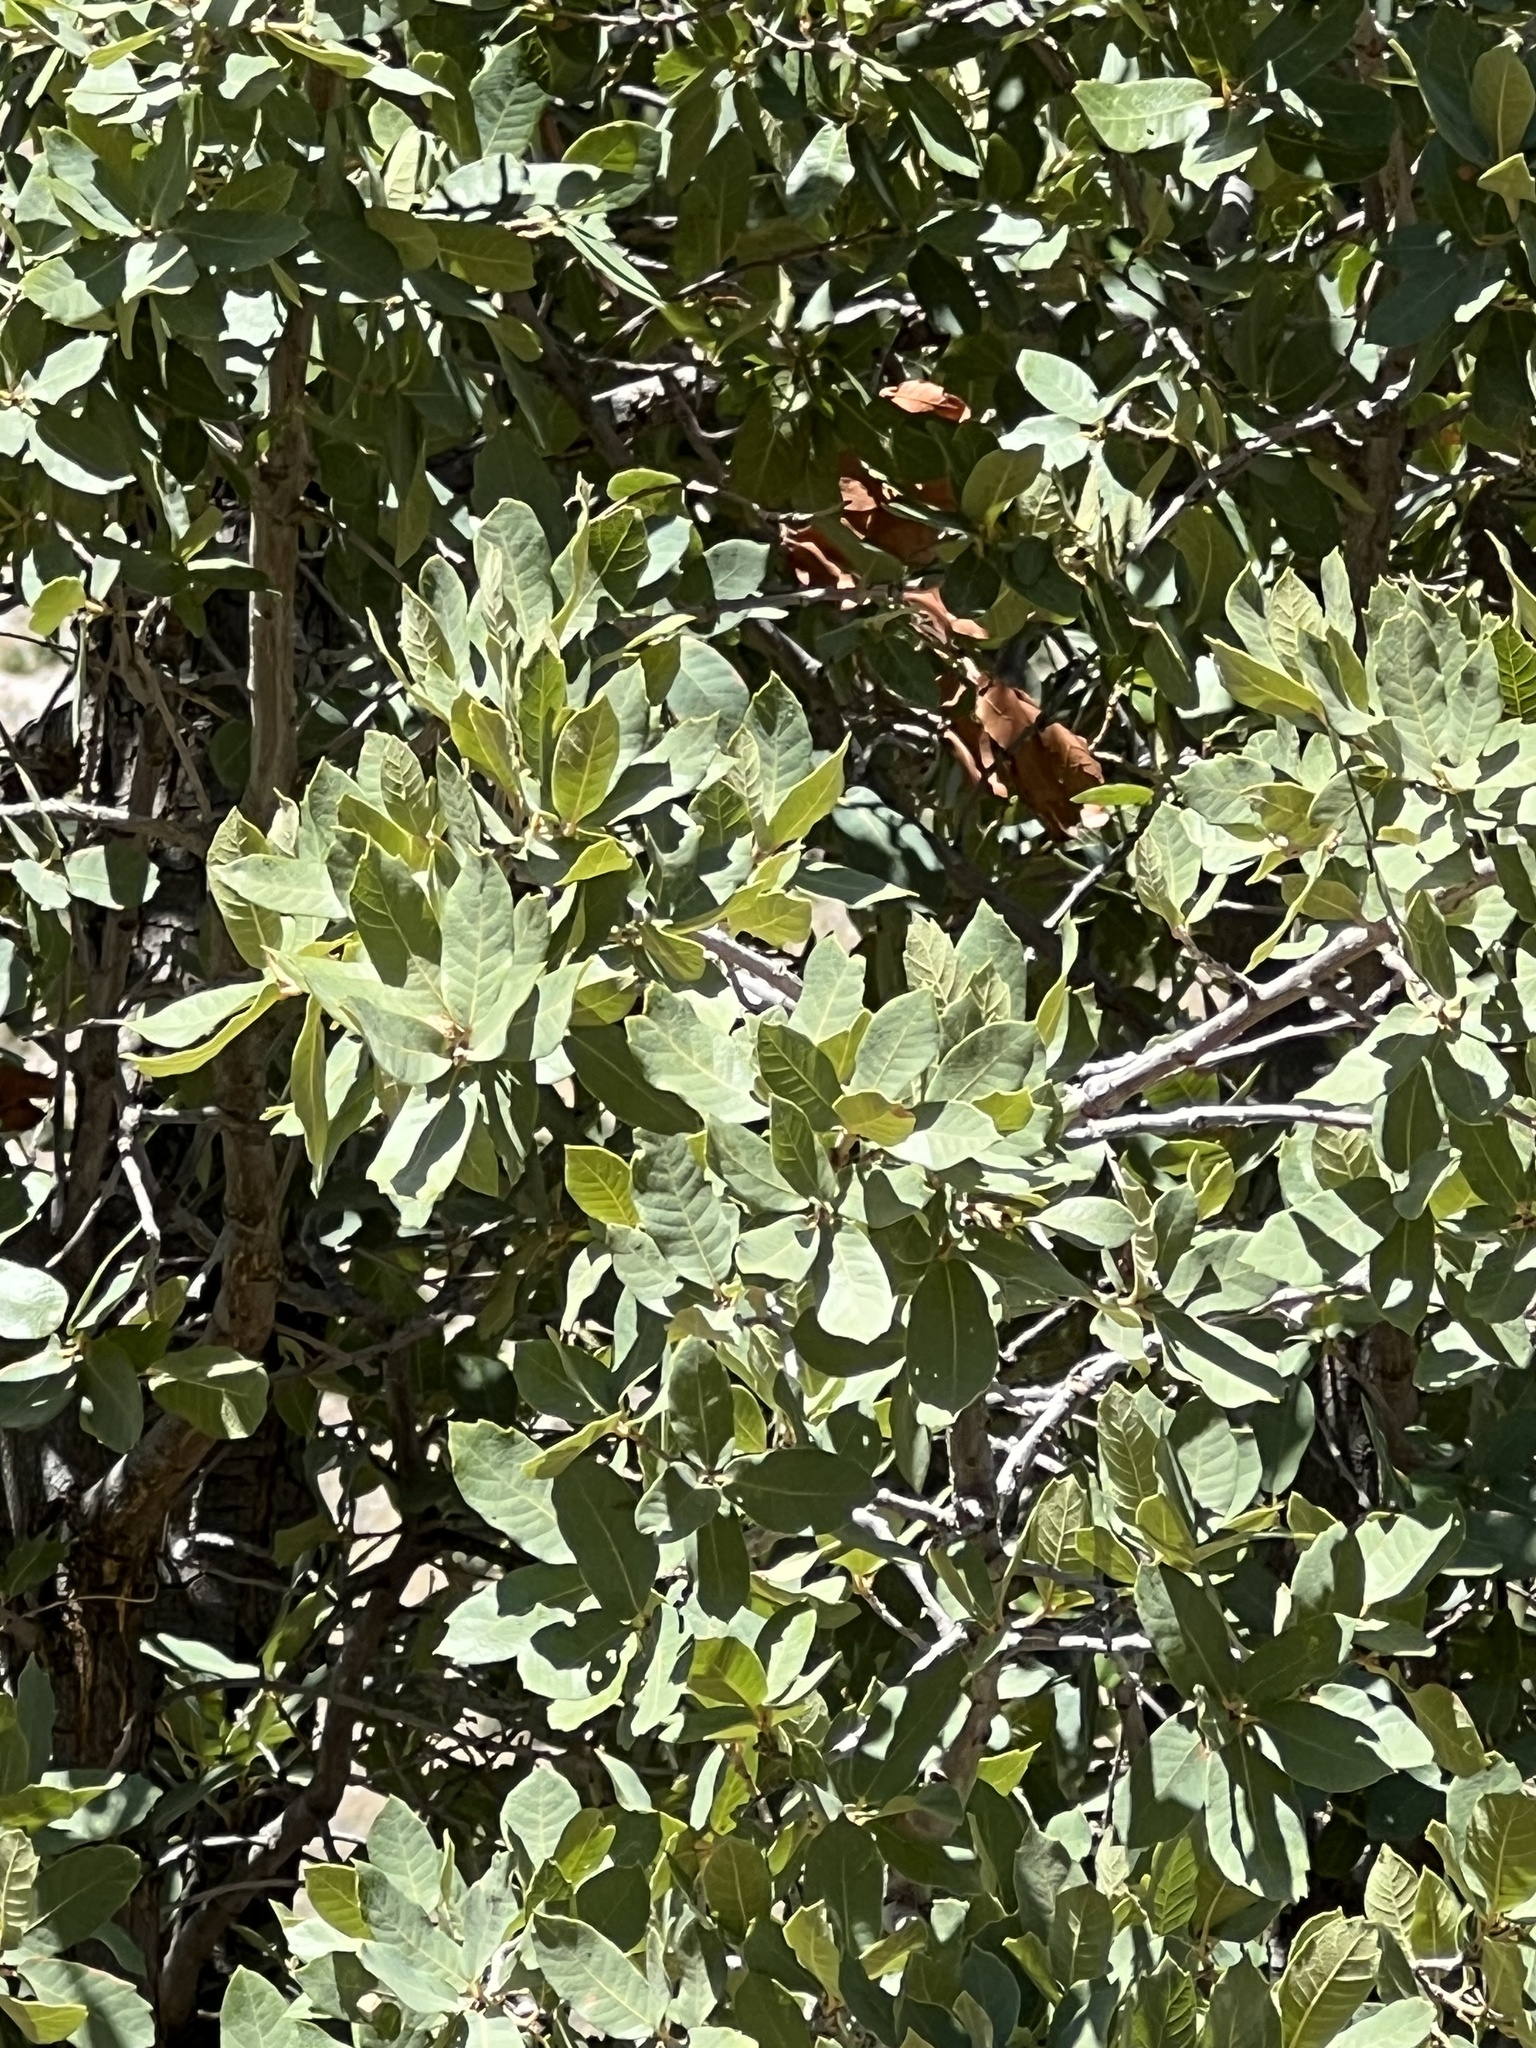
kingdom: Plantae
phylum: Tracheophyta
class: Magnoliopsida
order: Fagales
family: Fagaceae
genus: Quercus
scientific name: Quercus arizonica
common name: Arizona white oak
